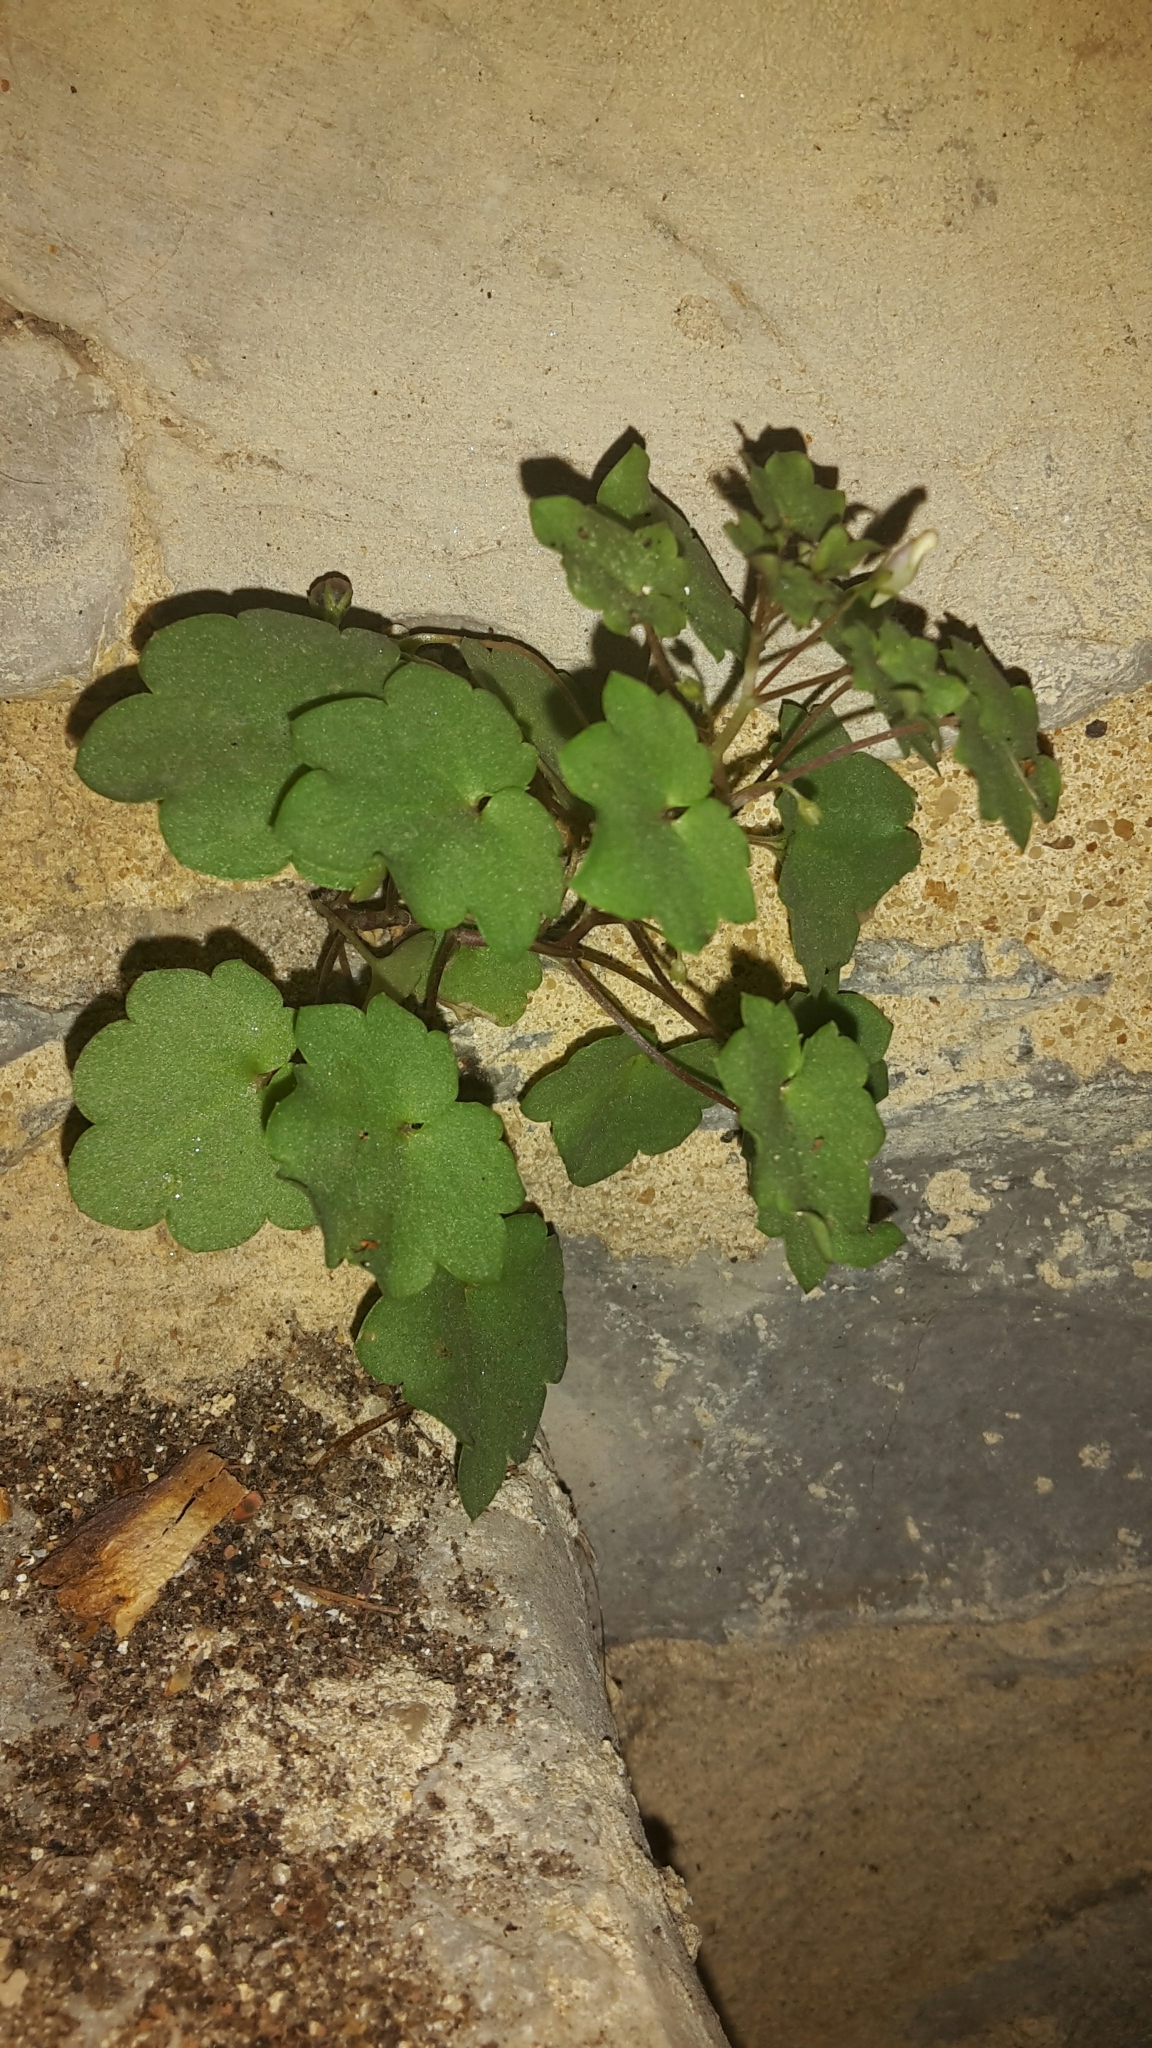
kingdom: Plantae
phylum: Tracheophyta
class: Magnoliopsida
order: Lamiales
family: Plantaginaceae
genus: Cymbalaria
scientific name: Cymbalaria muralis
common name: Ivy-leaved toadflax
